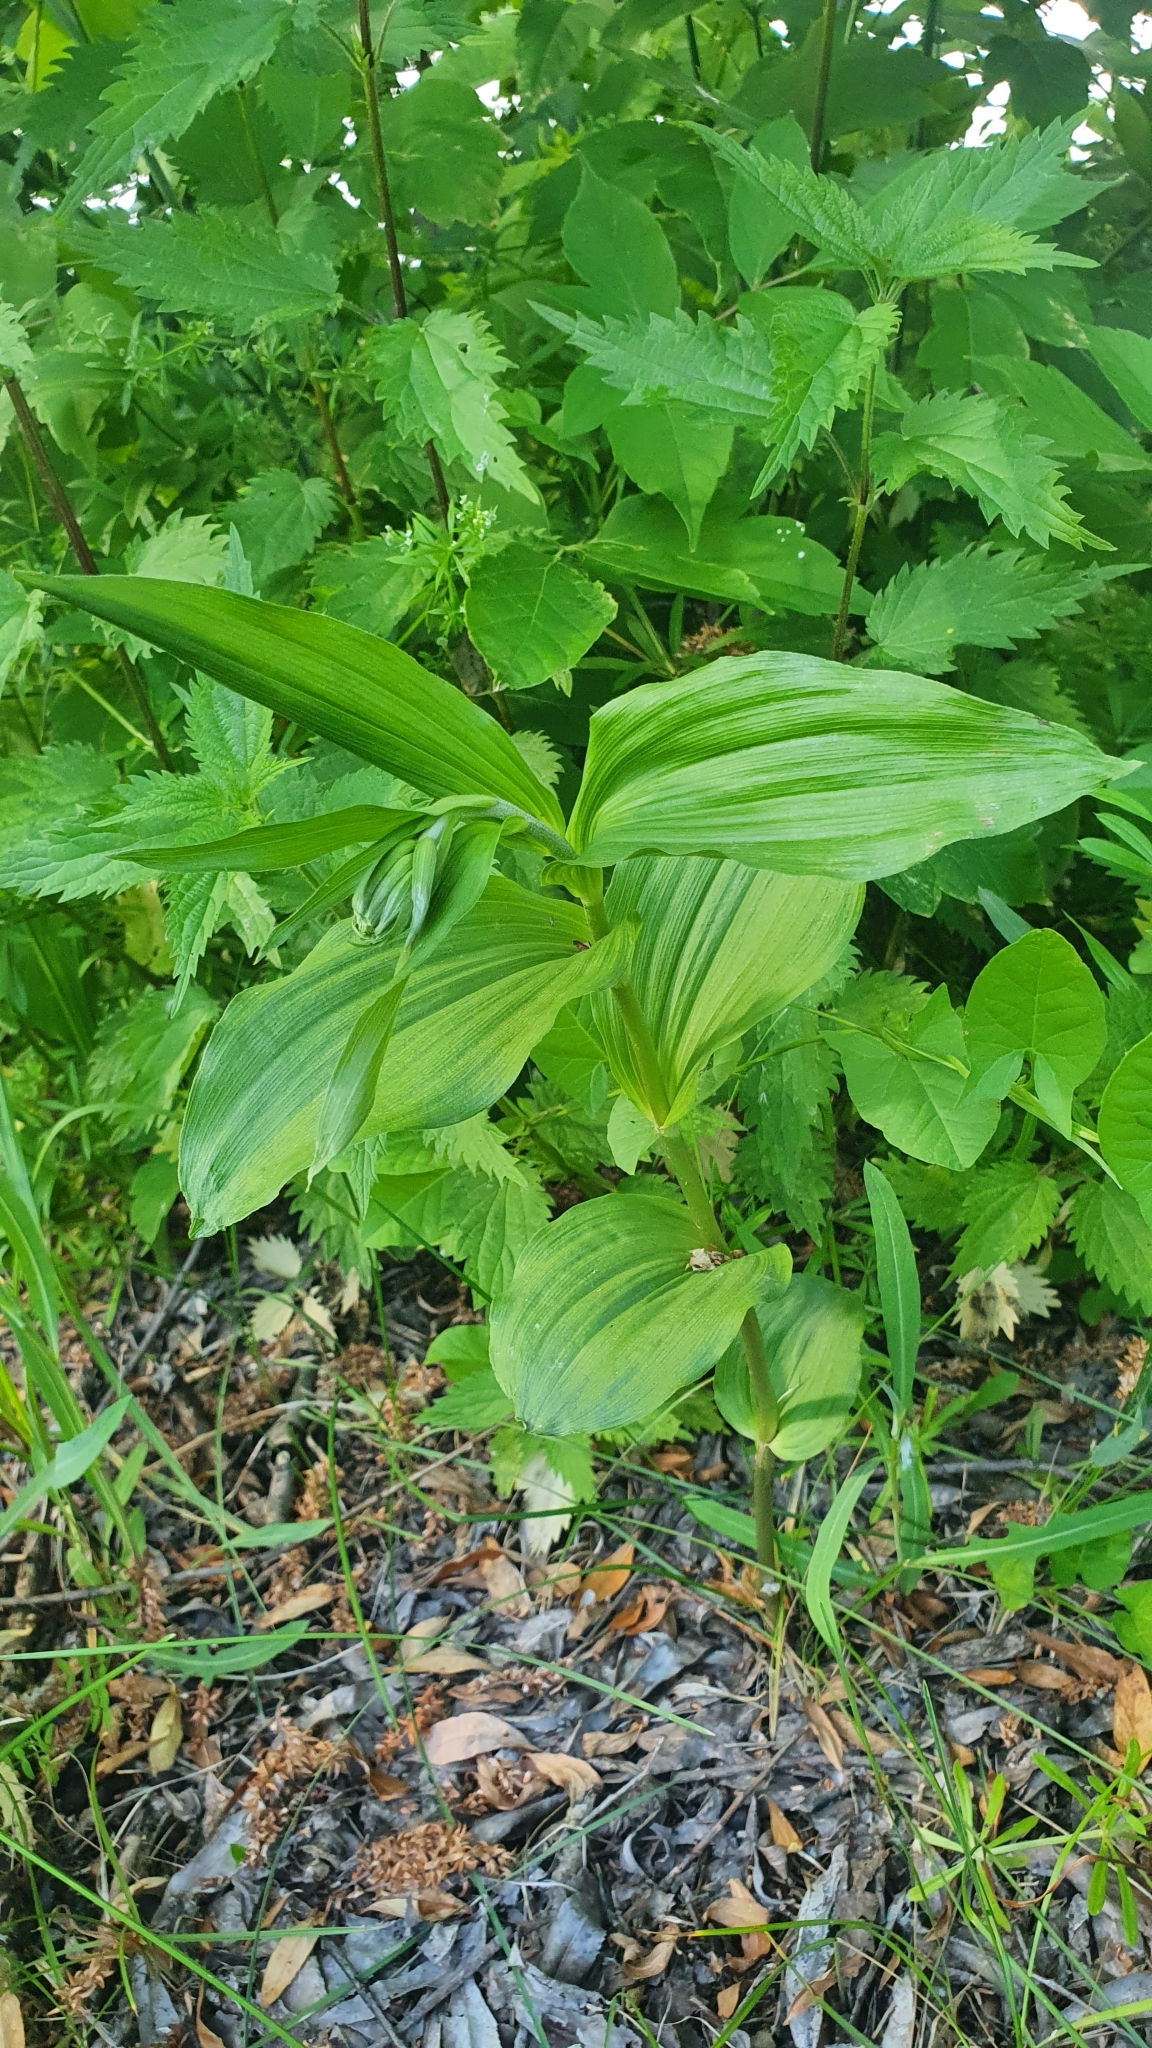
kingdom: Plantae
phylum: Tracheophyta
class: Liliopsida
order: Asparagales
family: Orchidaceae
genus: Epipactis
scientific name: Epipactis helleborine
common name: Broad-leaved helleborine
